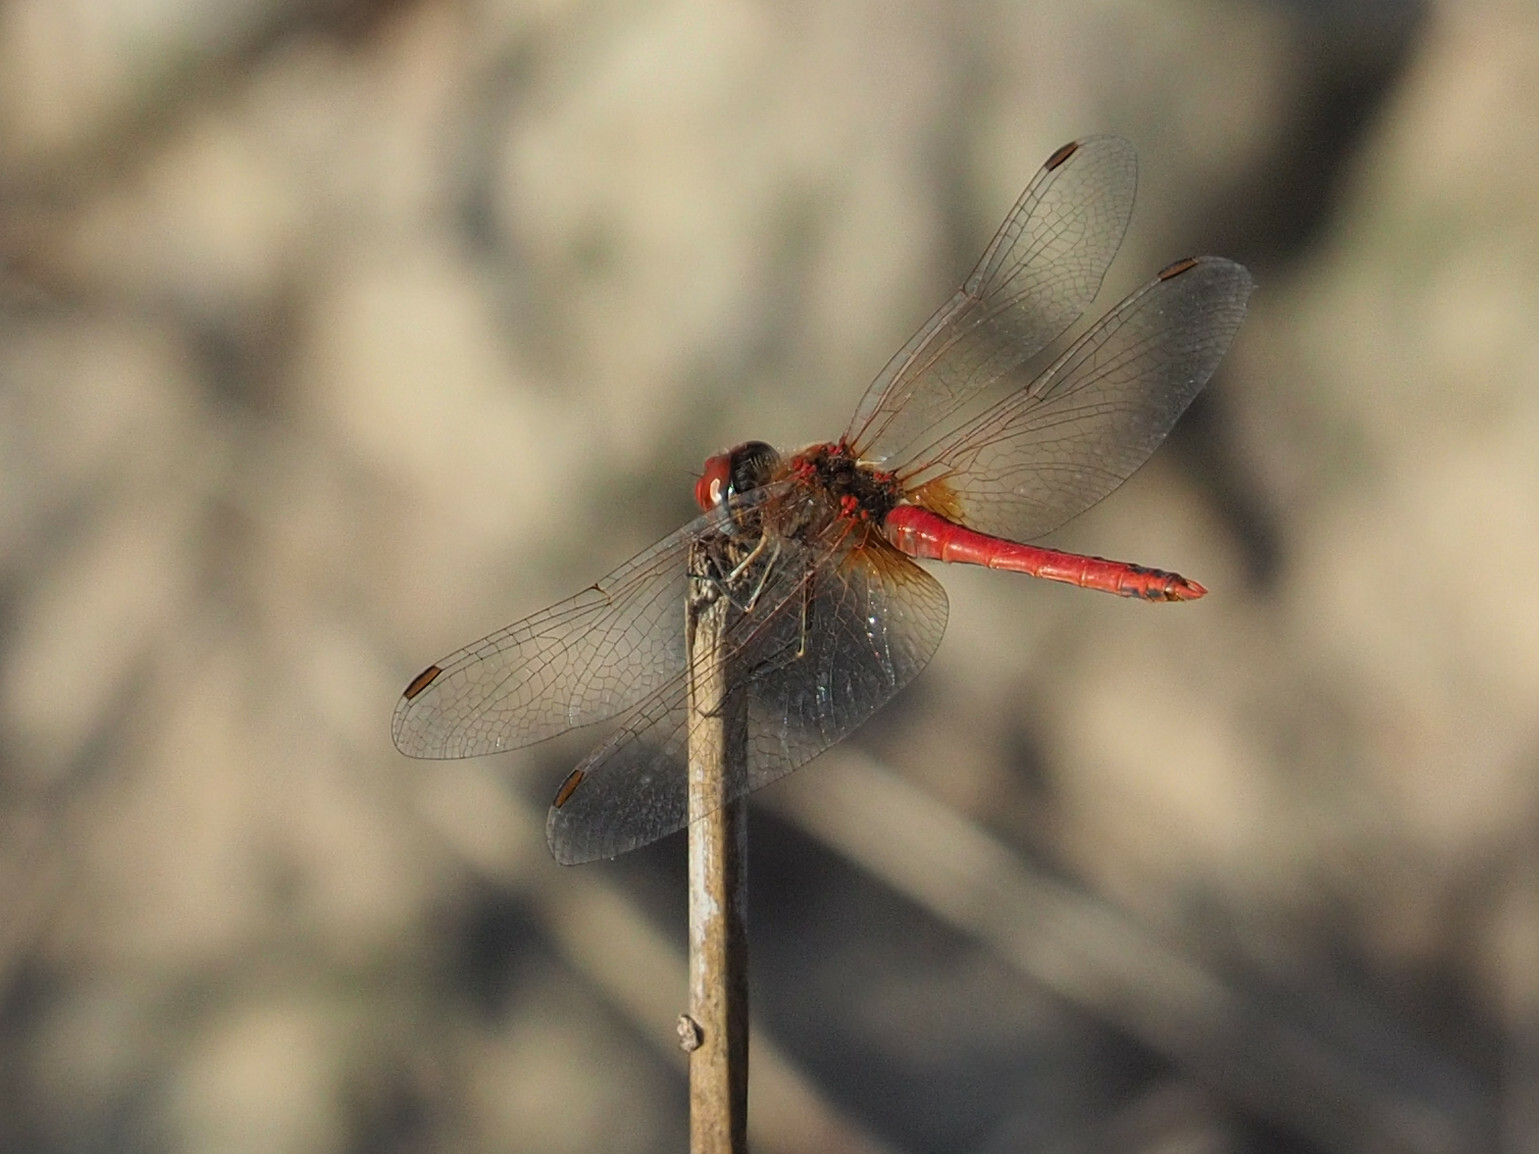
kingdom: Animalia
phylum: Arthropoda
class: Insecta
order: Odonata
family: Libellulidae
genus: Sympetrum
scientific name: Sympetrum fonscolombii
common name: Red-veined darter
